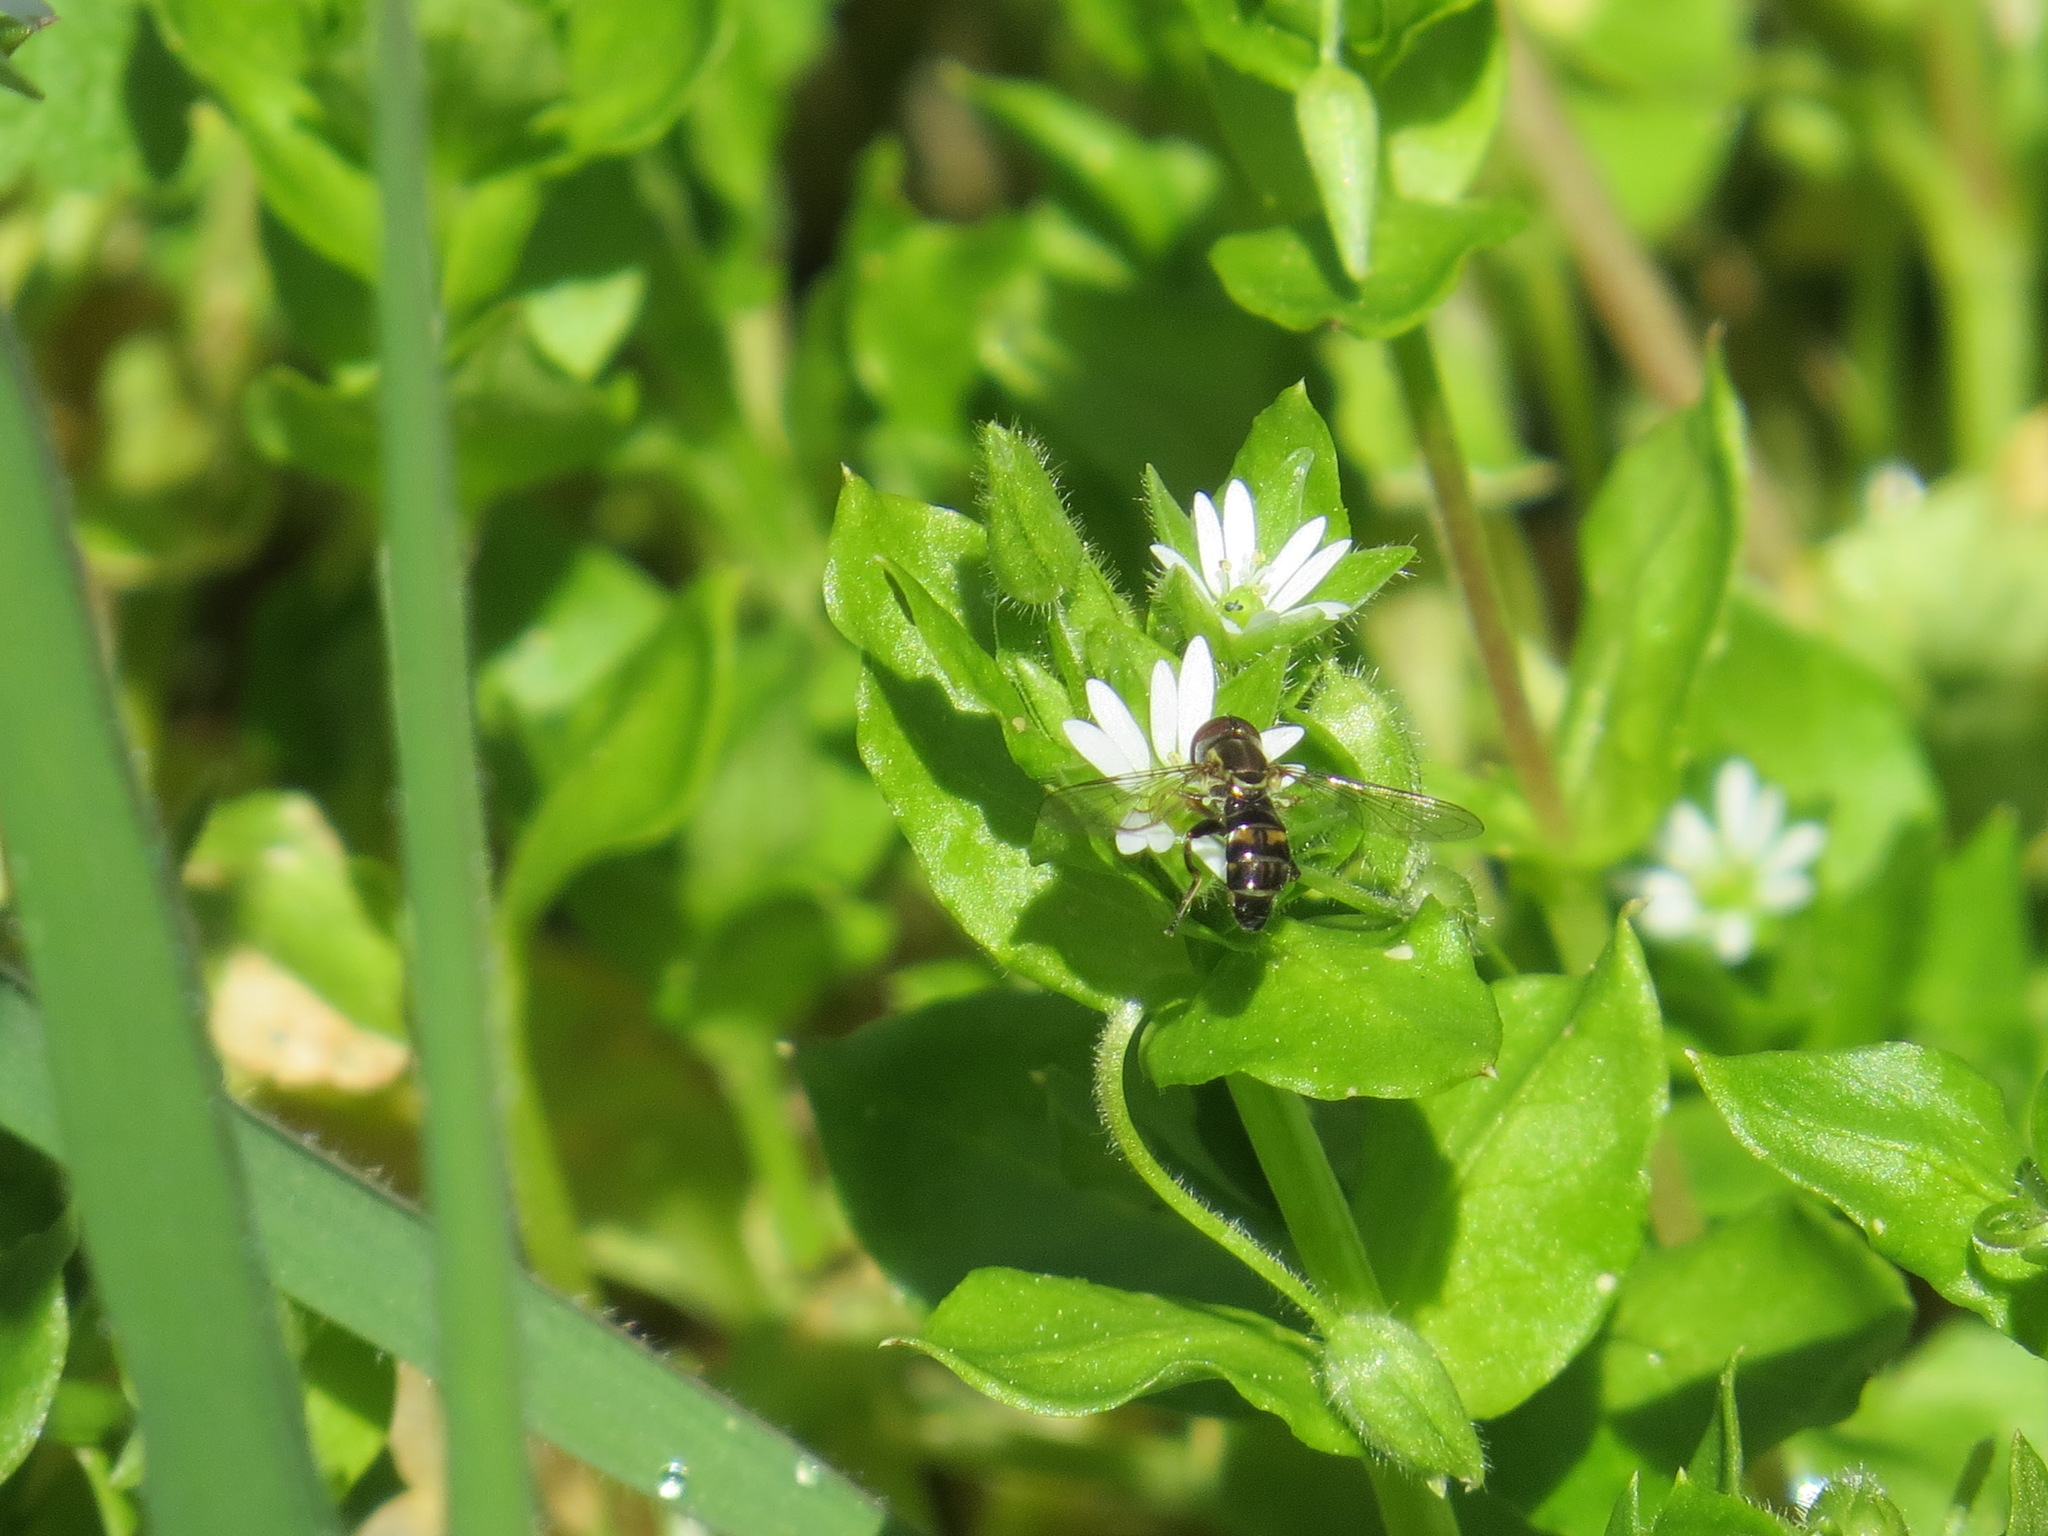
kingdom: Animalia
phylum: Arthropoda
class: Insecta
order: Diptera
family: Syrphidae
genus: Toxomerus
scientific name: Toxomerus occidentalis
